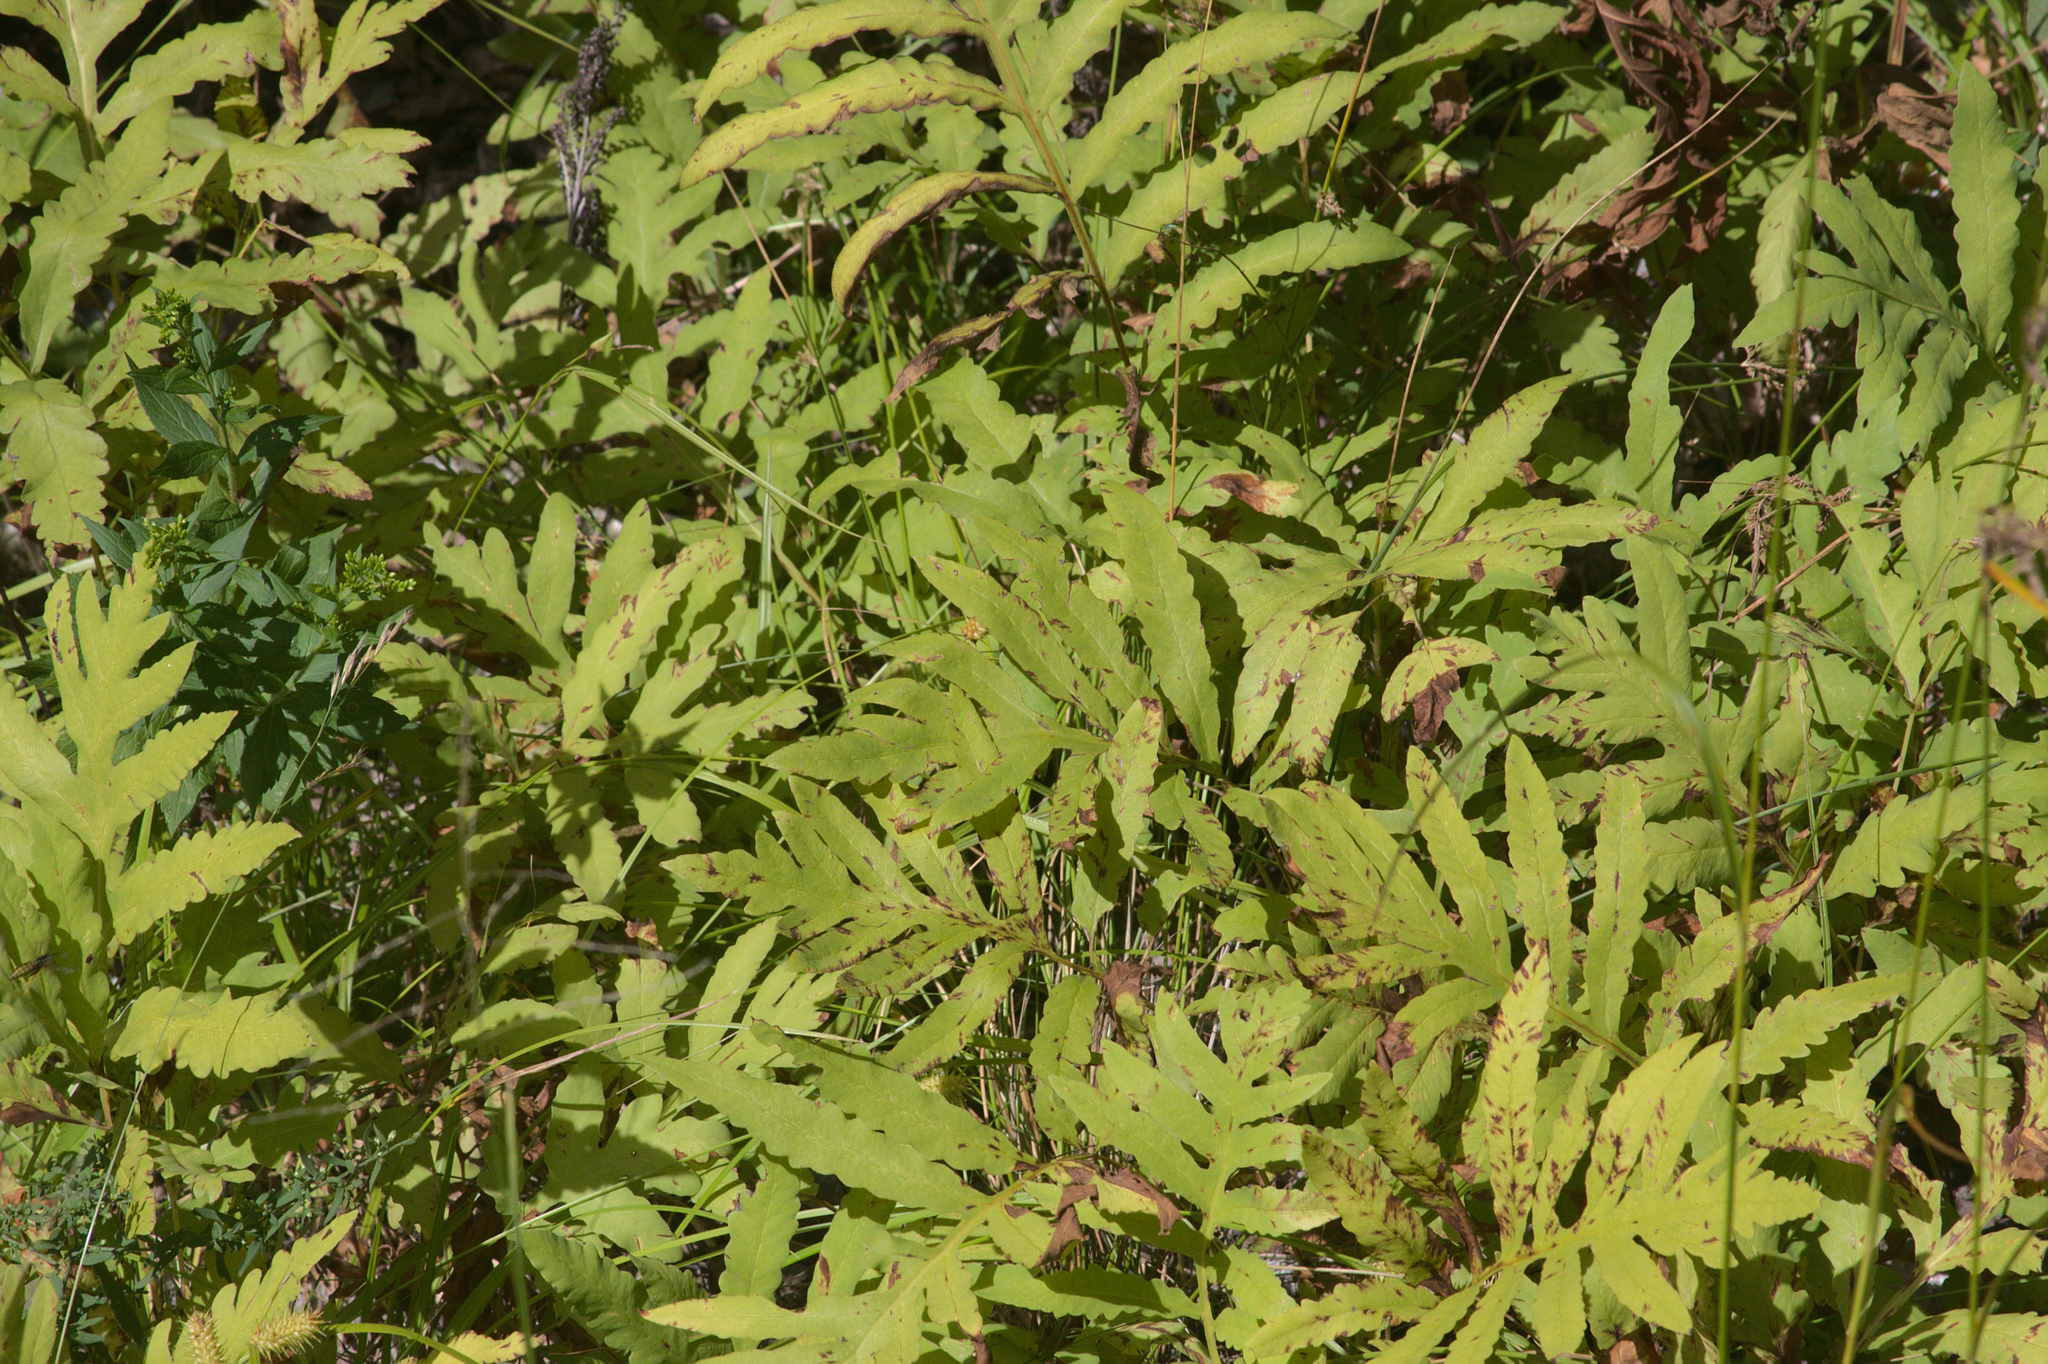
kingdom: Plantae
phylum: Tracheophyta
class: Polypodiopsida
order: Polypodiales
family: Onocleaceae
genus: Onoclea
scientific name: Onoclea sensibilis
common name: Sensitive fern
